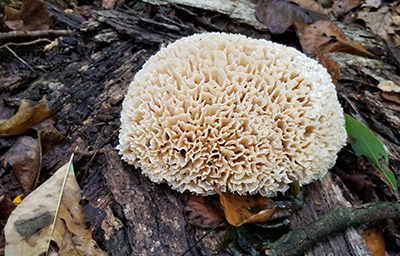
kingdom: Fungi
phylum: Basidiomycota
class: Agaricomycetes
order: Polyporales
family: Sparassidaceae
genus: Sparassis
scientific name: Sparassis spathulata
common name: Eastern cauliflower mushroom
